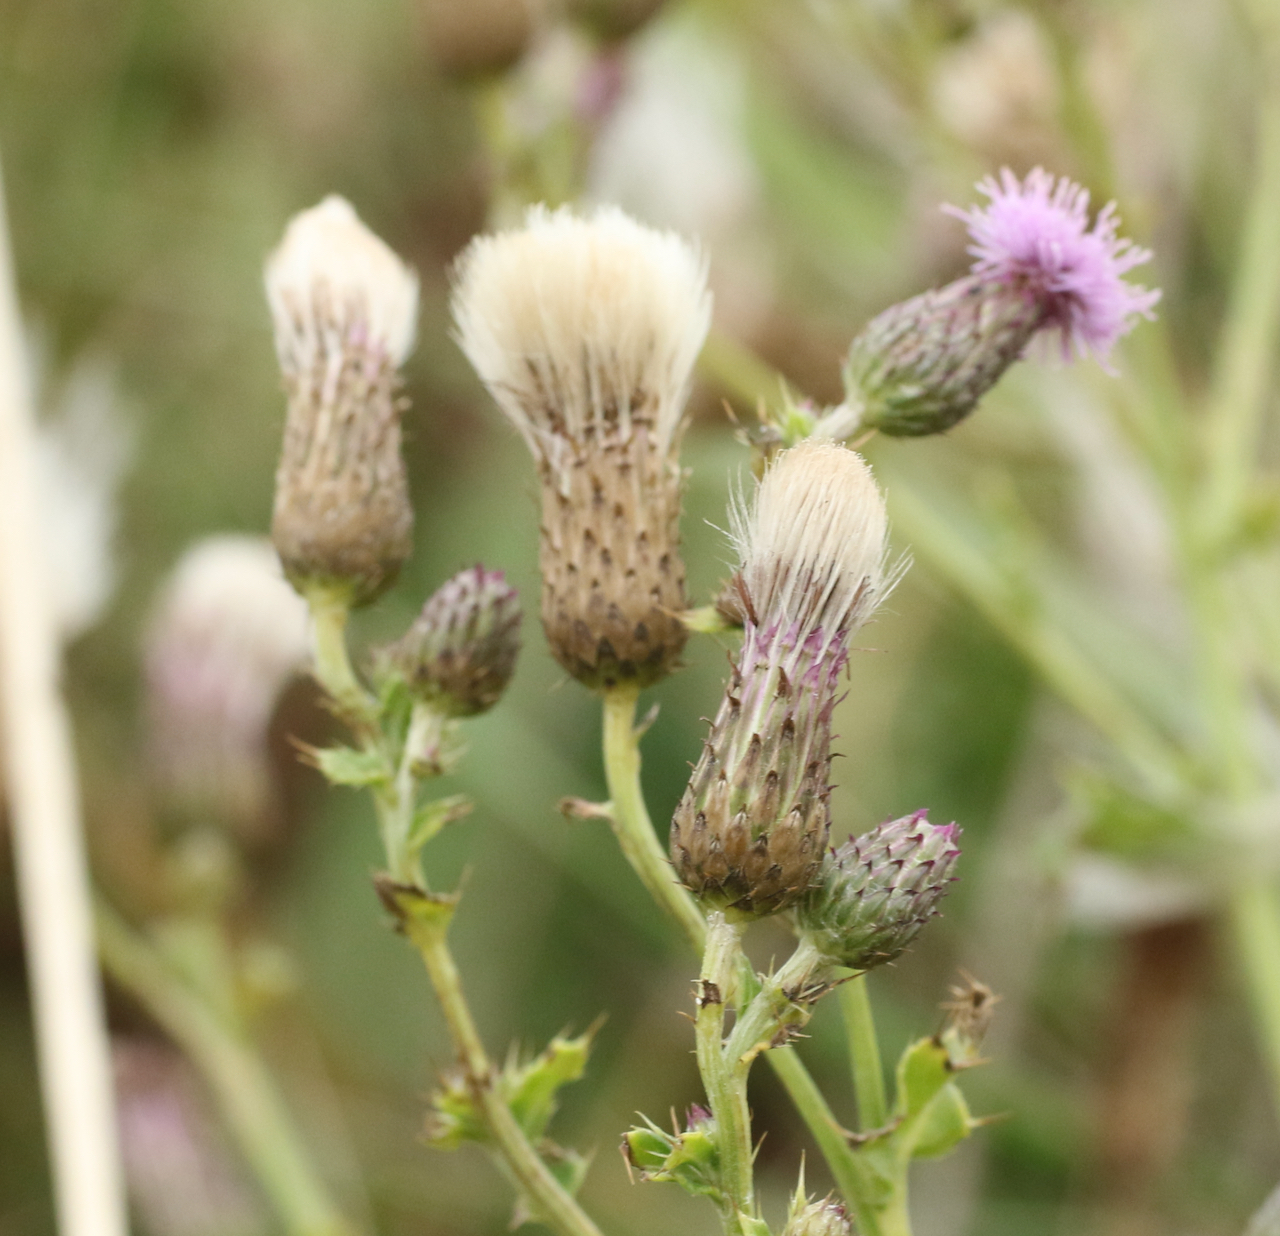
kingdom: Plantae
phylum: Tracheophyta
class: Magnoliopsida
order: Asterales
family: Asteraceae
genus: Cirsium
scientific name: Cirsium arvense
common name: Creeping thistle
